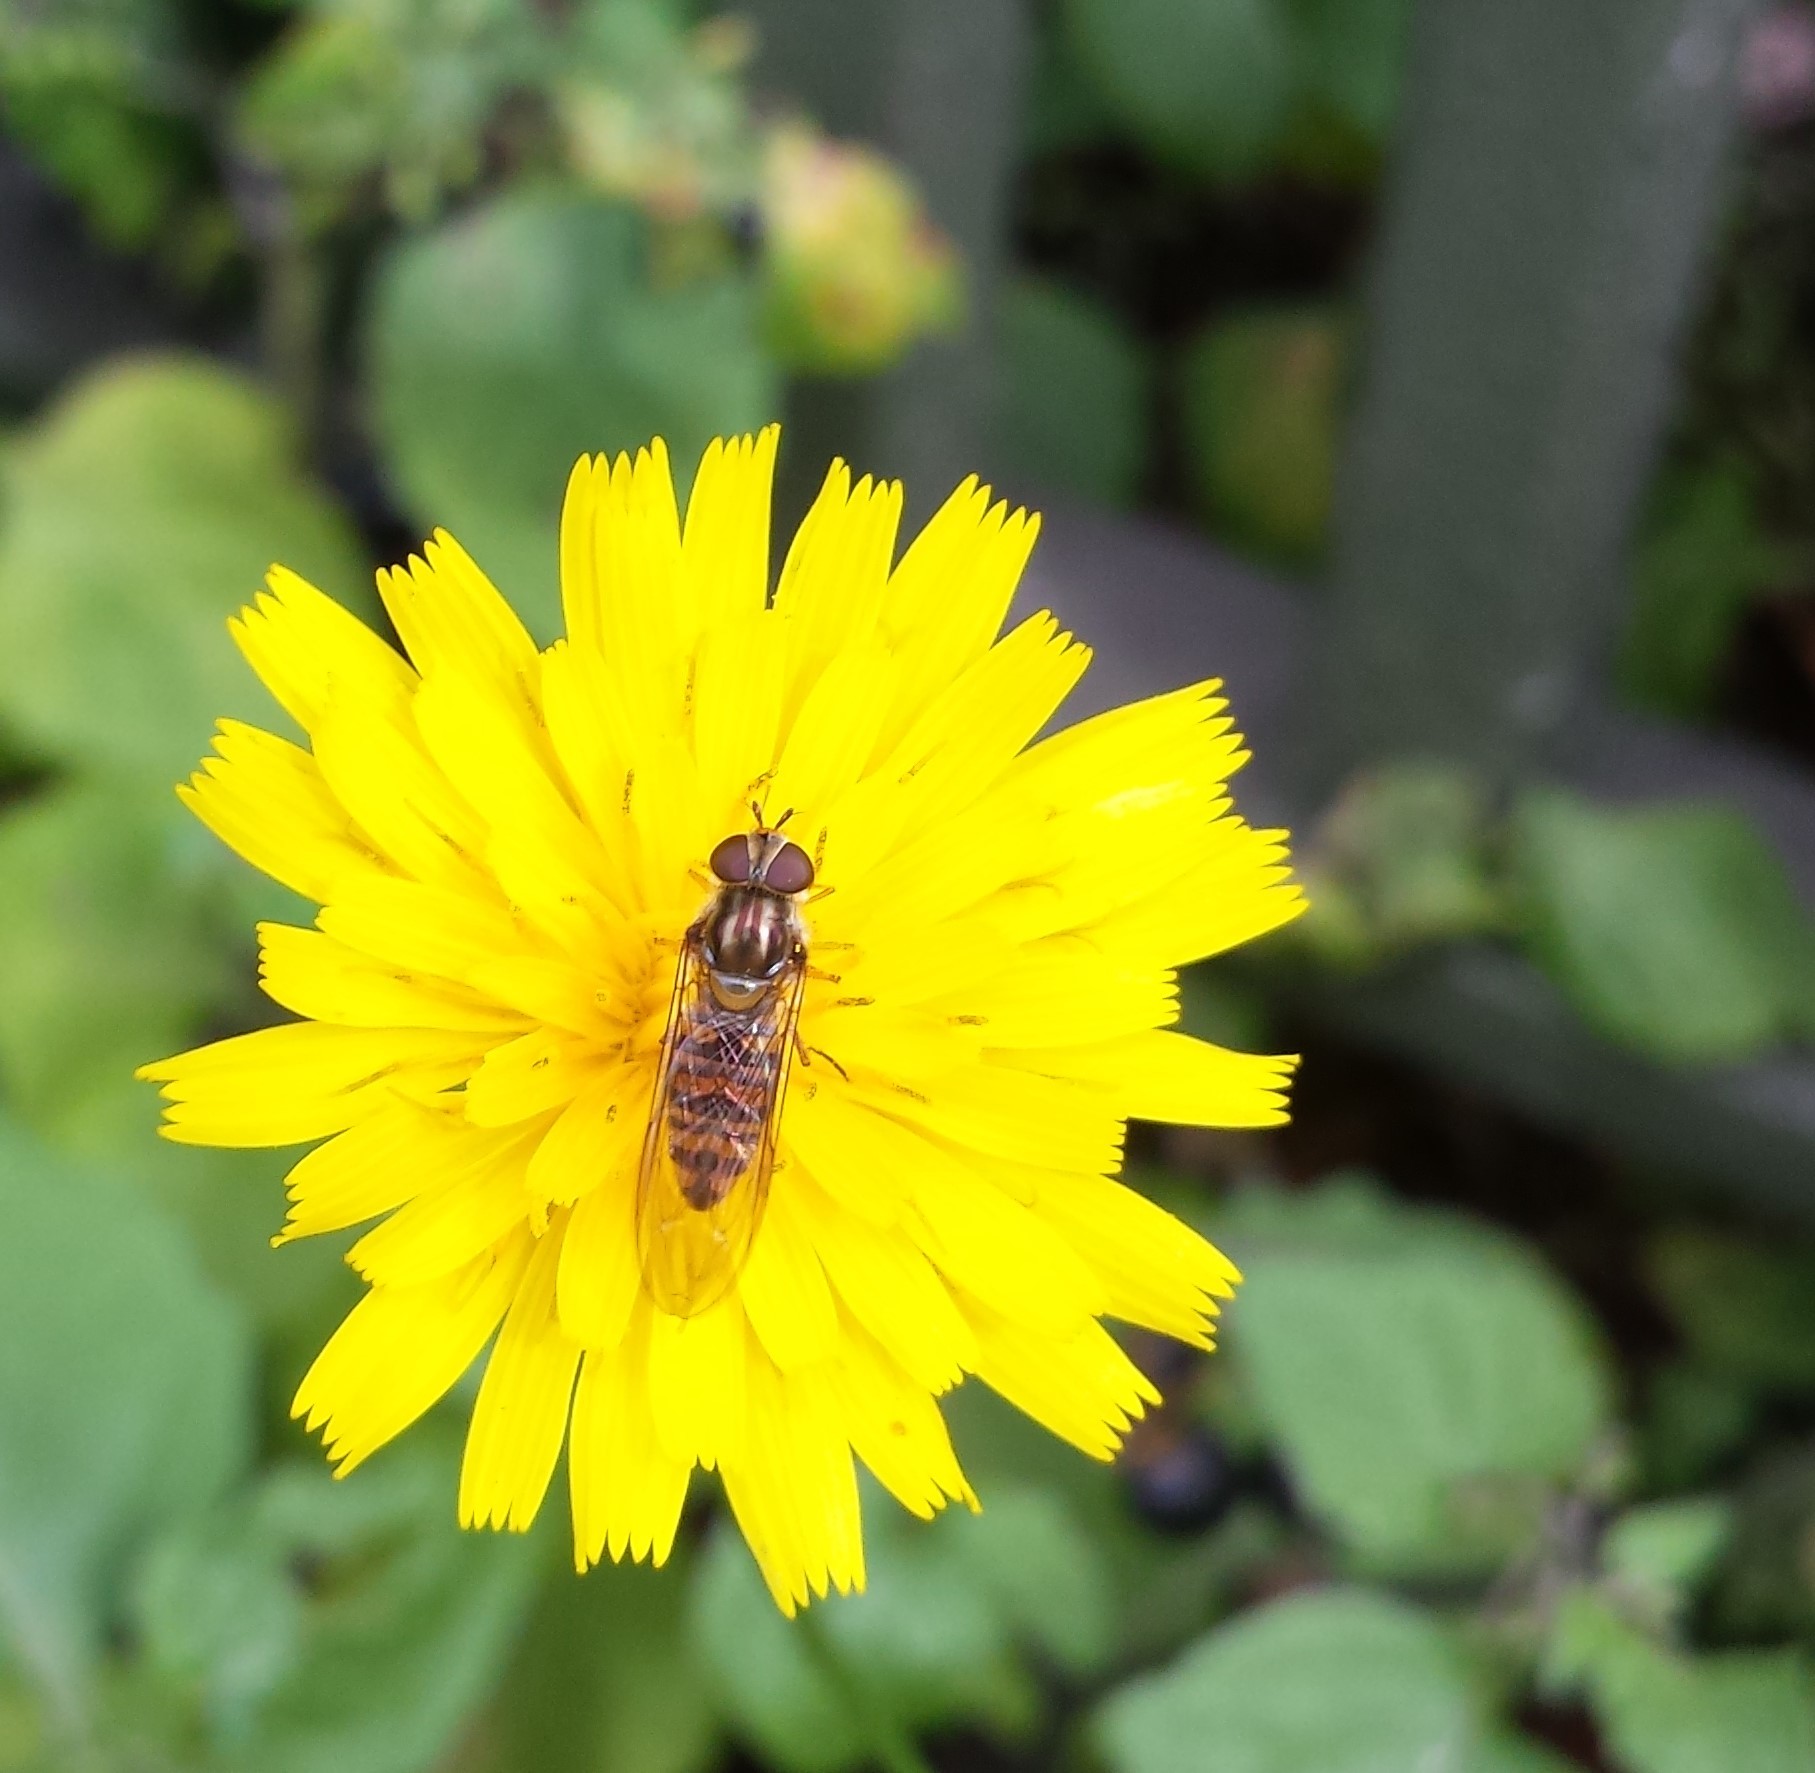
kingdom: Animalia
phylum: Arthropoda
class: Insecta
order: Diptera
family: Syrphidae
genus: Episyrphus
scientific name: Episyrphus balteatus
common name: Marmalade hoverfly
